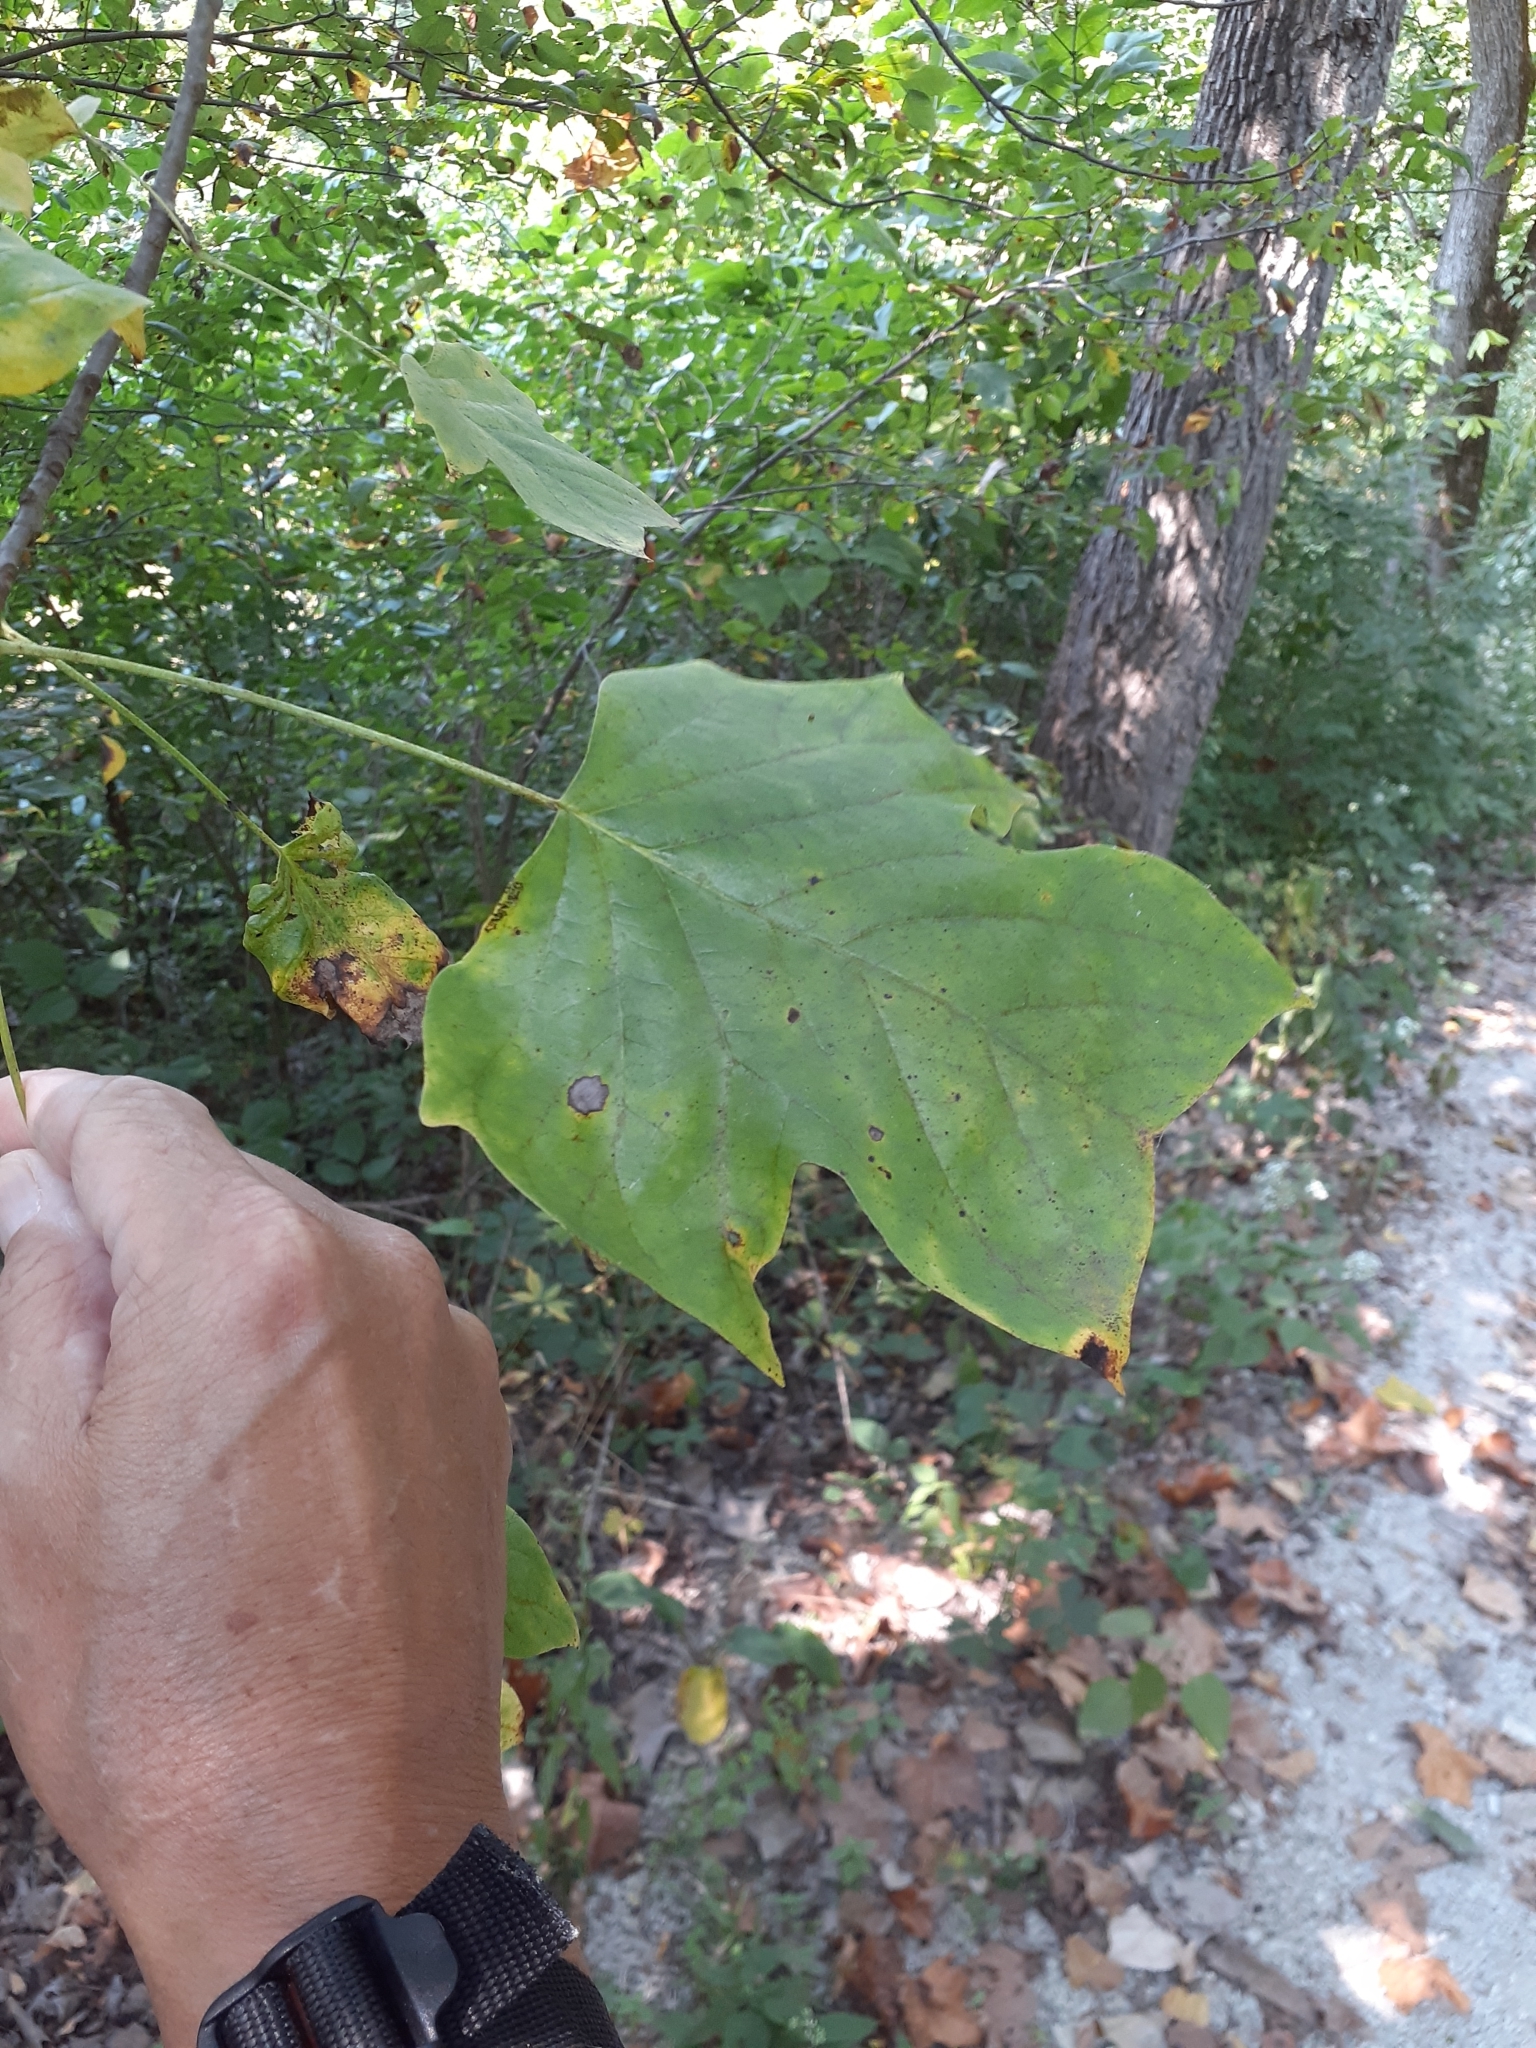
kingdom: Plantae
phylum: Tracheophyta
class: Magnoliopsida
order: Magnoliales
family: Magnoliaceae
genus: Liriodendron
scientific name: Liriodendron tulipifera
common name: Tulip tree
